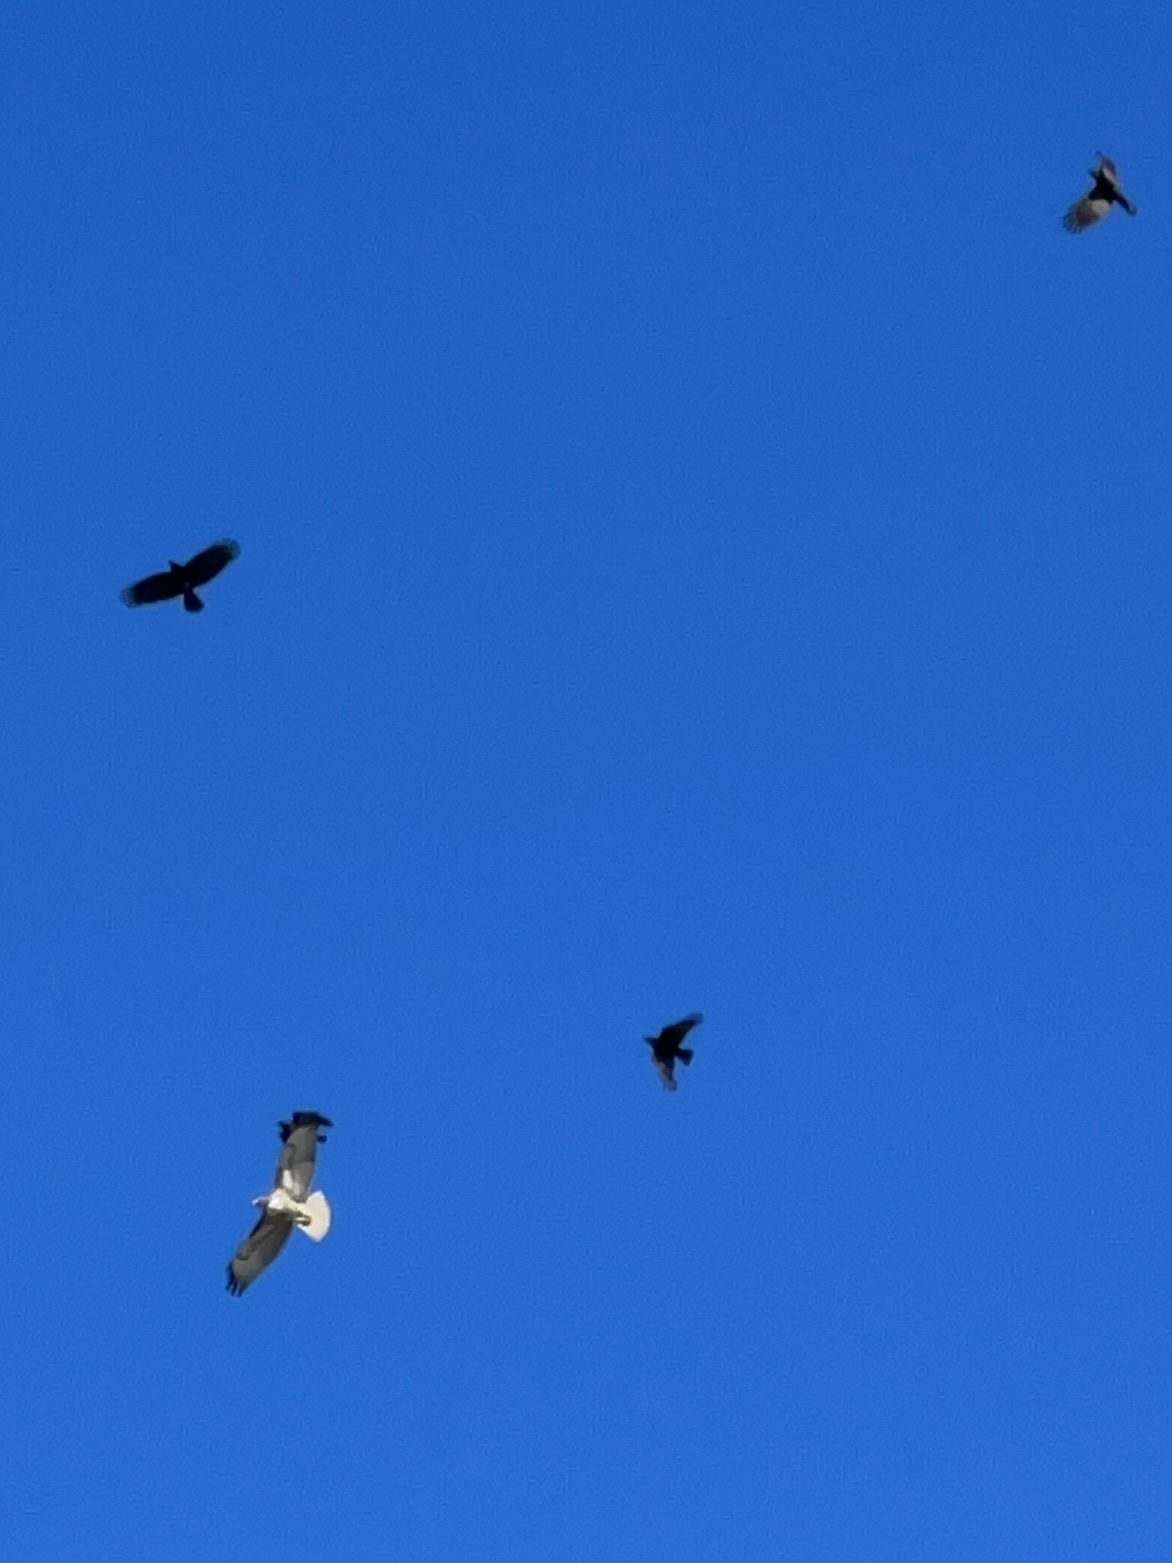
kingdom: Animalia
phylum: Chordata
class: Aves
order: Accipitriformes
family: Accipitridae
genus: Buteo
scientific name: Buteo jamaicensis
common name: Red-tailed hawk
